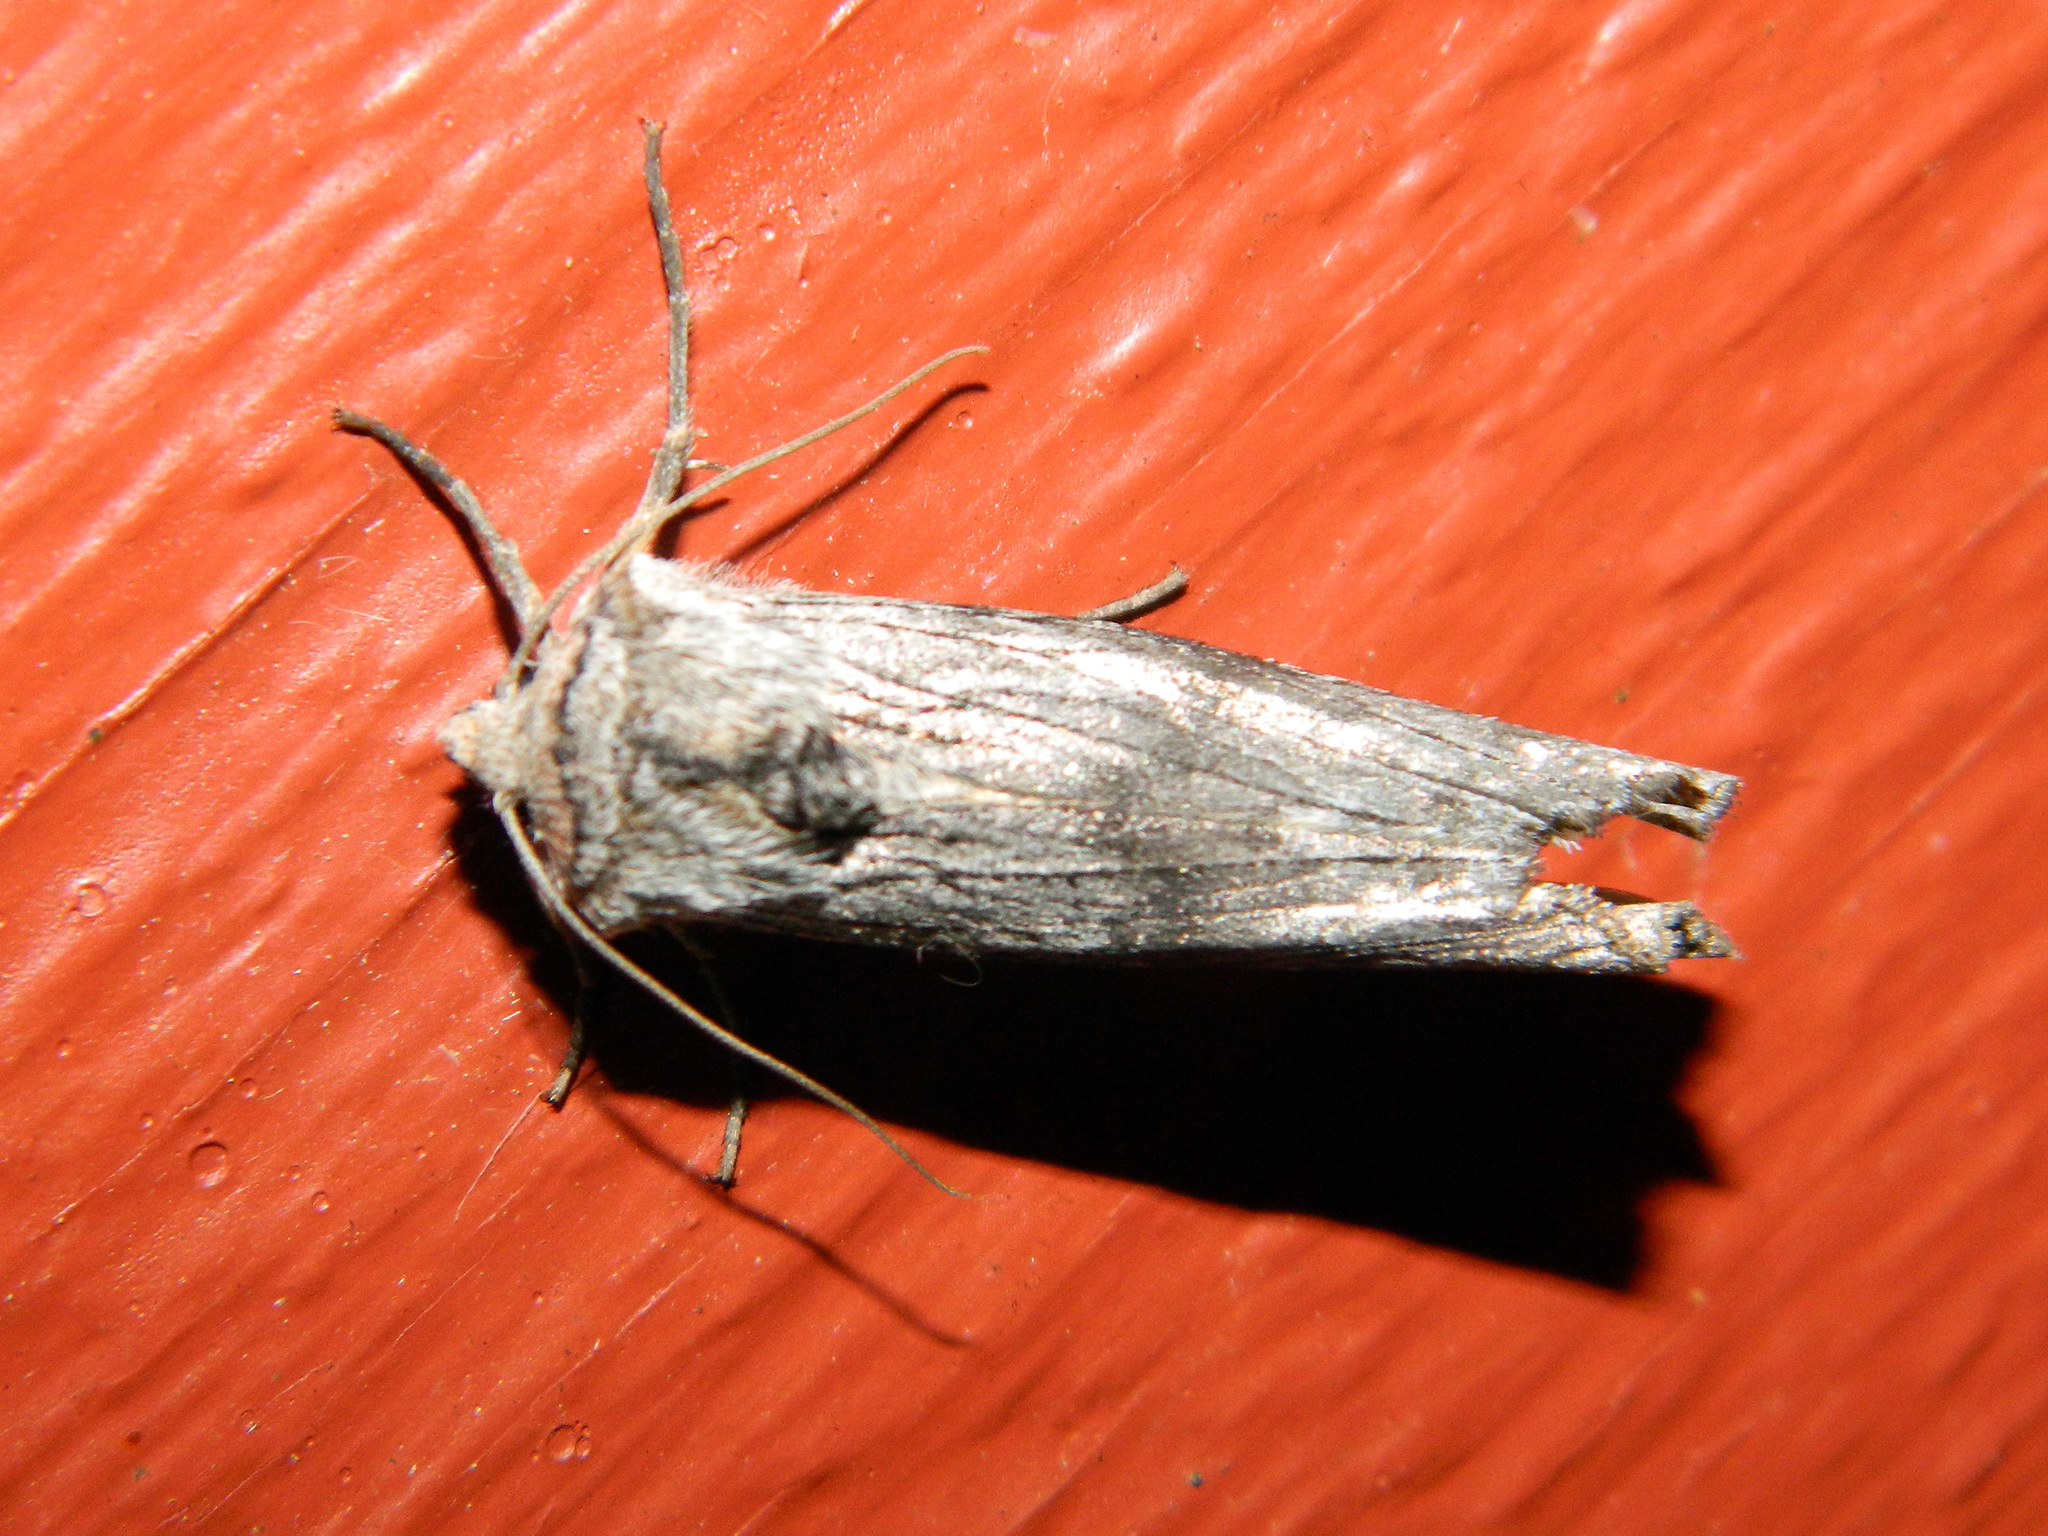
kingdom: Animalia
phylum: Arthropoda
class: Insecta
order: Lepidoptera
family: Noctuidae
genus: Xylena
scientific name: Xylena germana
